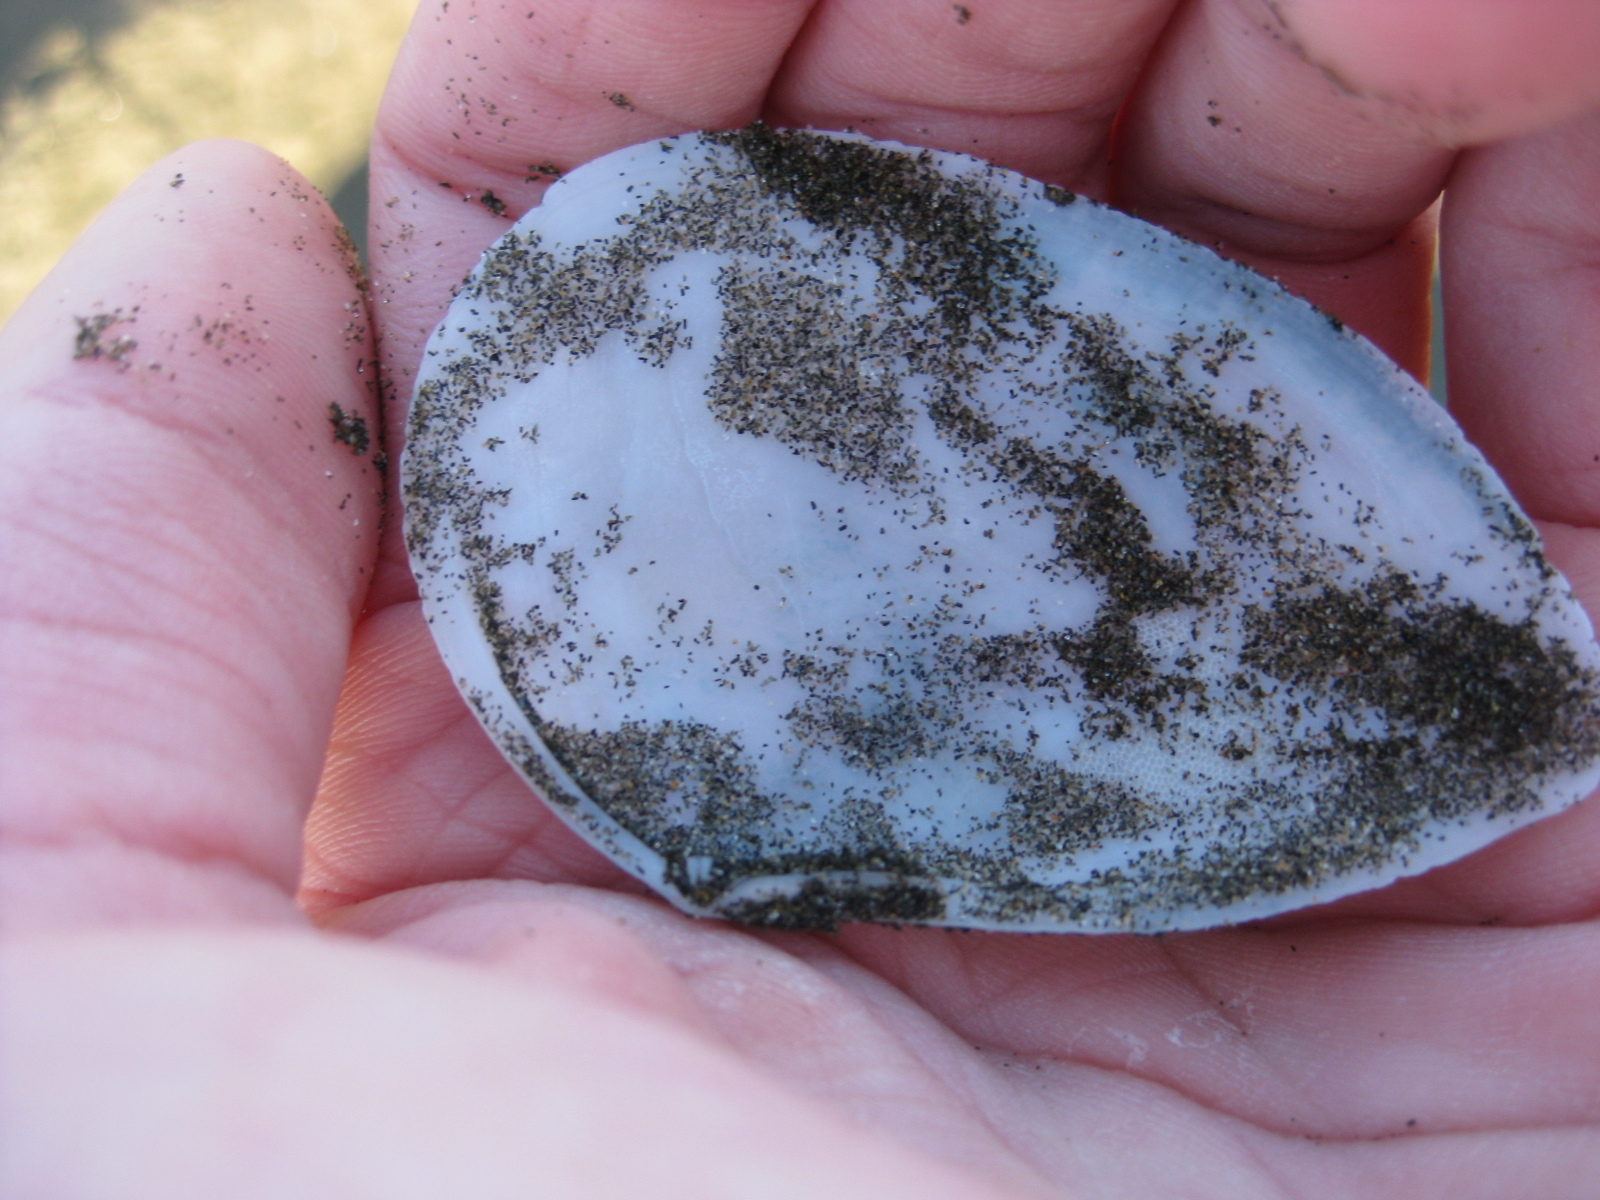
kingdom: Animalia
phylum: Mollusca
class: Bivalvia
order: Cardiida
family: Tellinidae
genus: Bartschicoma
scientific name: Bartschicoma gaimardi
